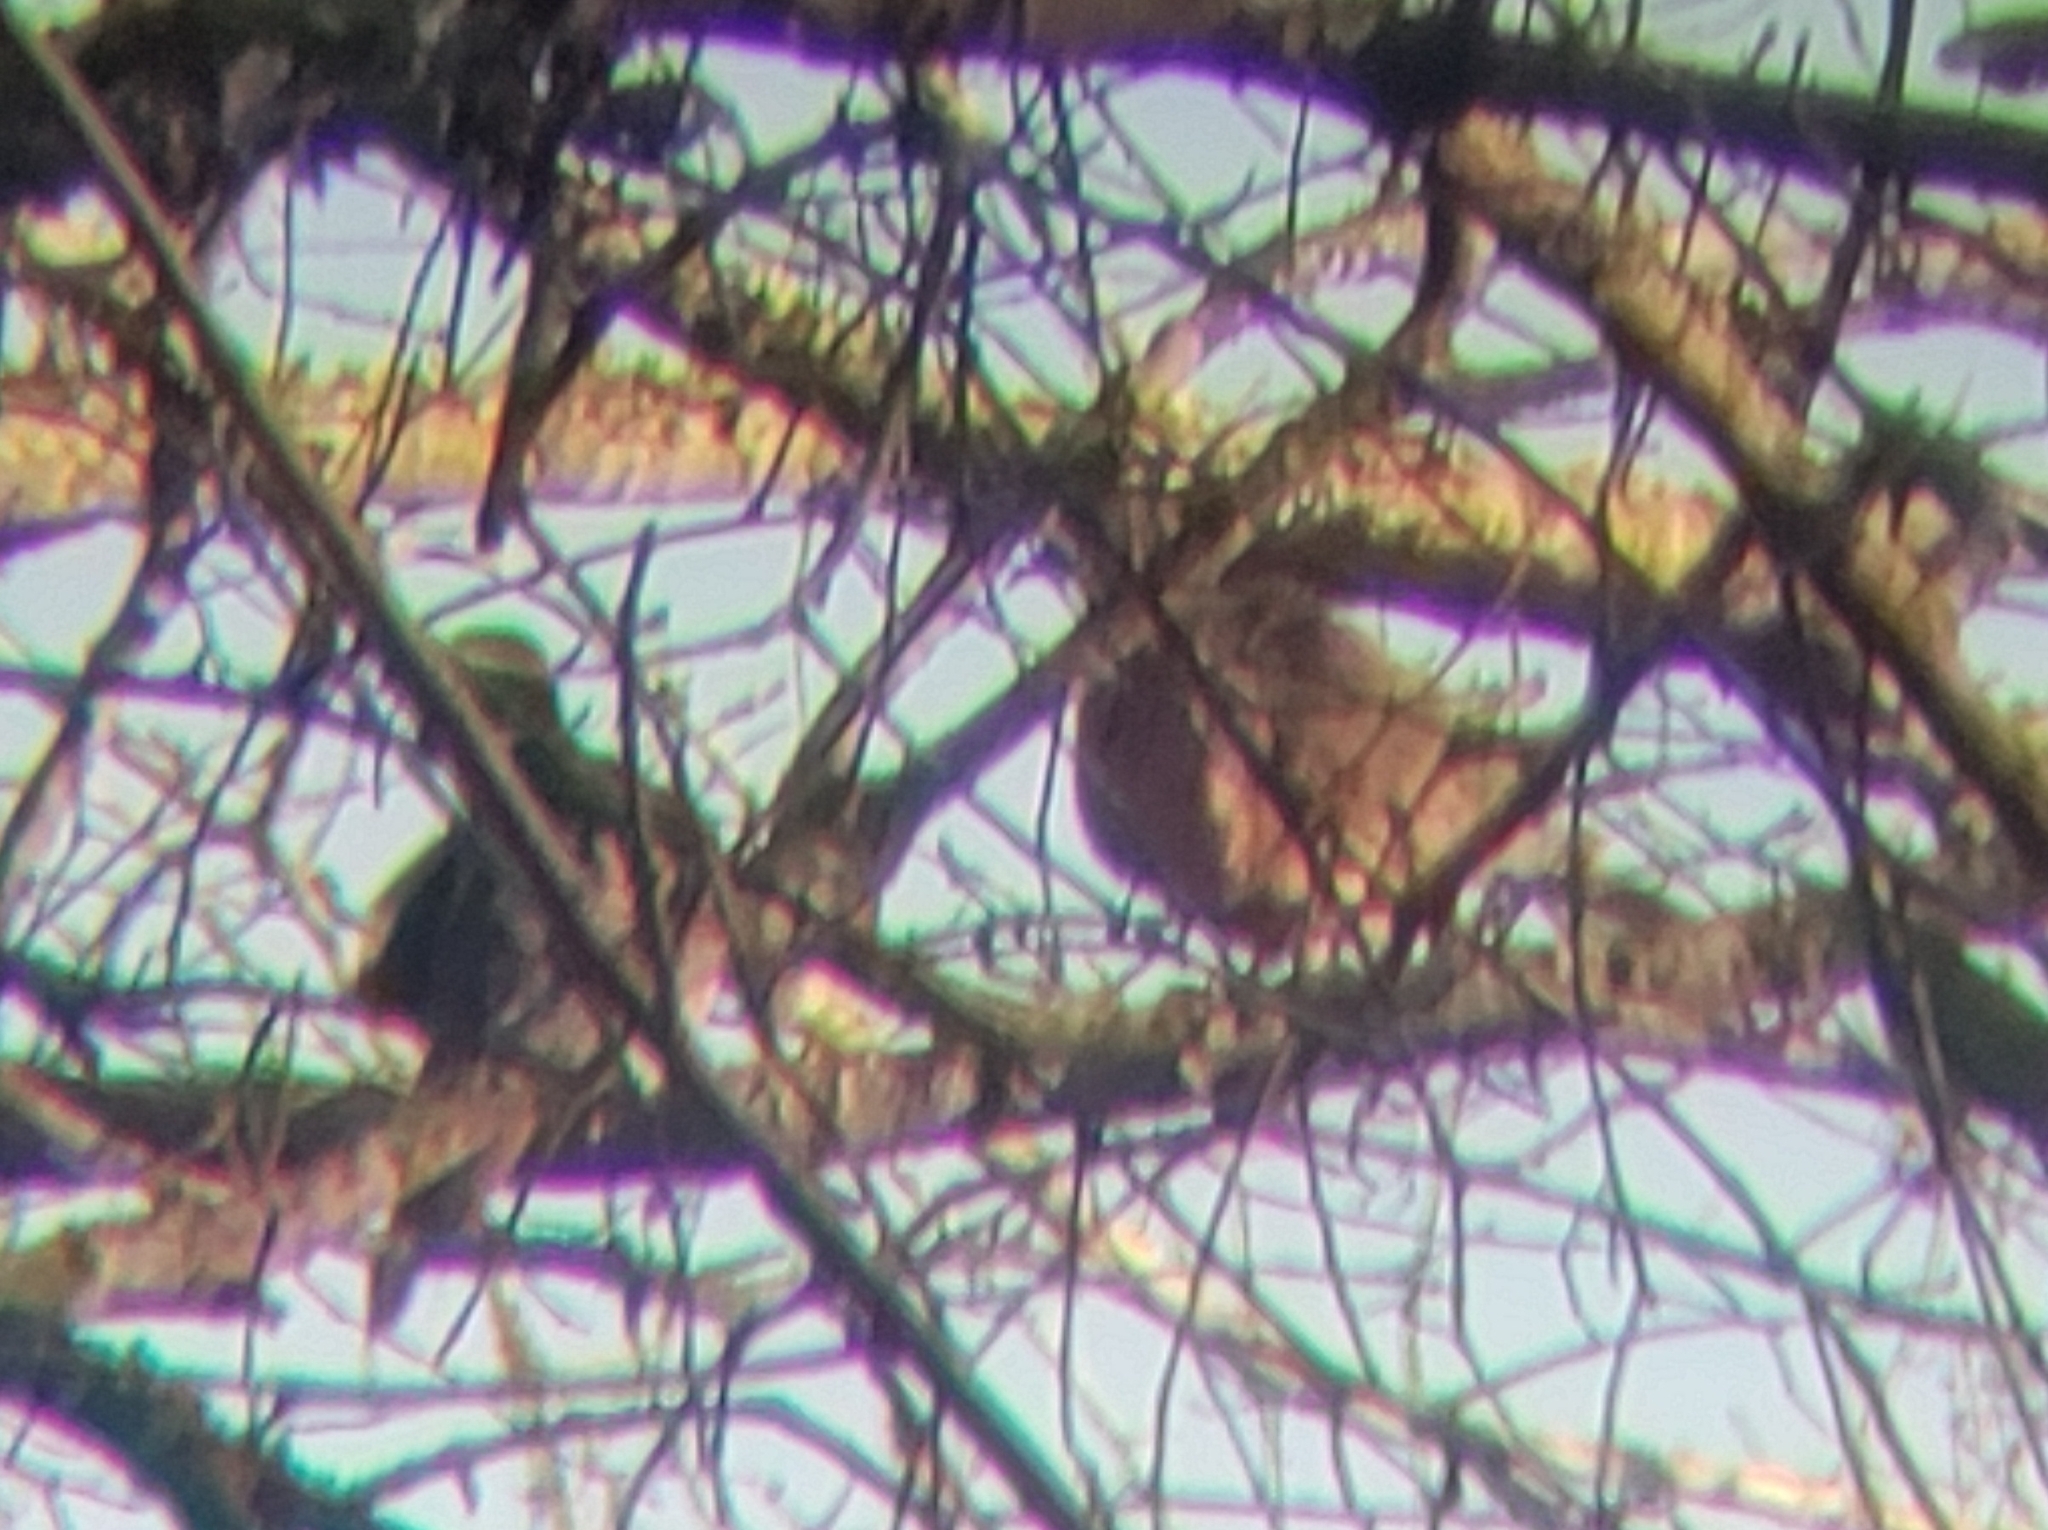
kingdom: Animalia
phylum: Chordata
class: Aves
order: Columbiformes
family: Columbidae
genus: Zenaida
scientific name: Zenaida macroura
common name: Mourning dove
